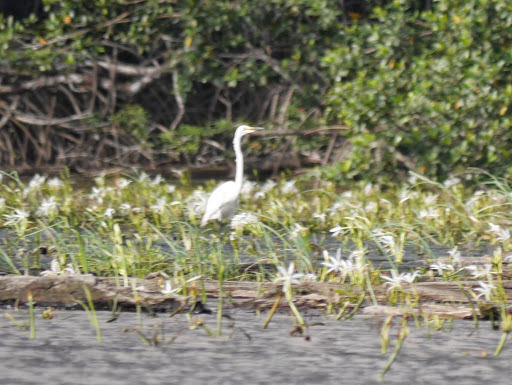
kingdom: Animalia
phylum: Chordata
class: Aves
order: Pelecaniformes
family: Ardeidae
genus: Ardea
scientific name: Ardea alba
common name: Great egret
